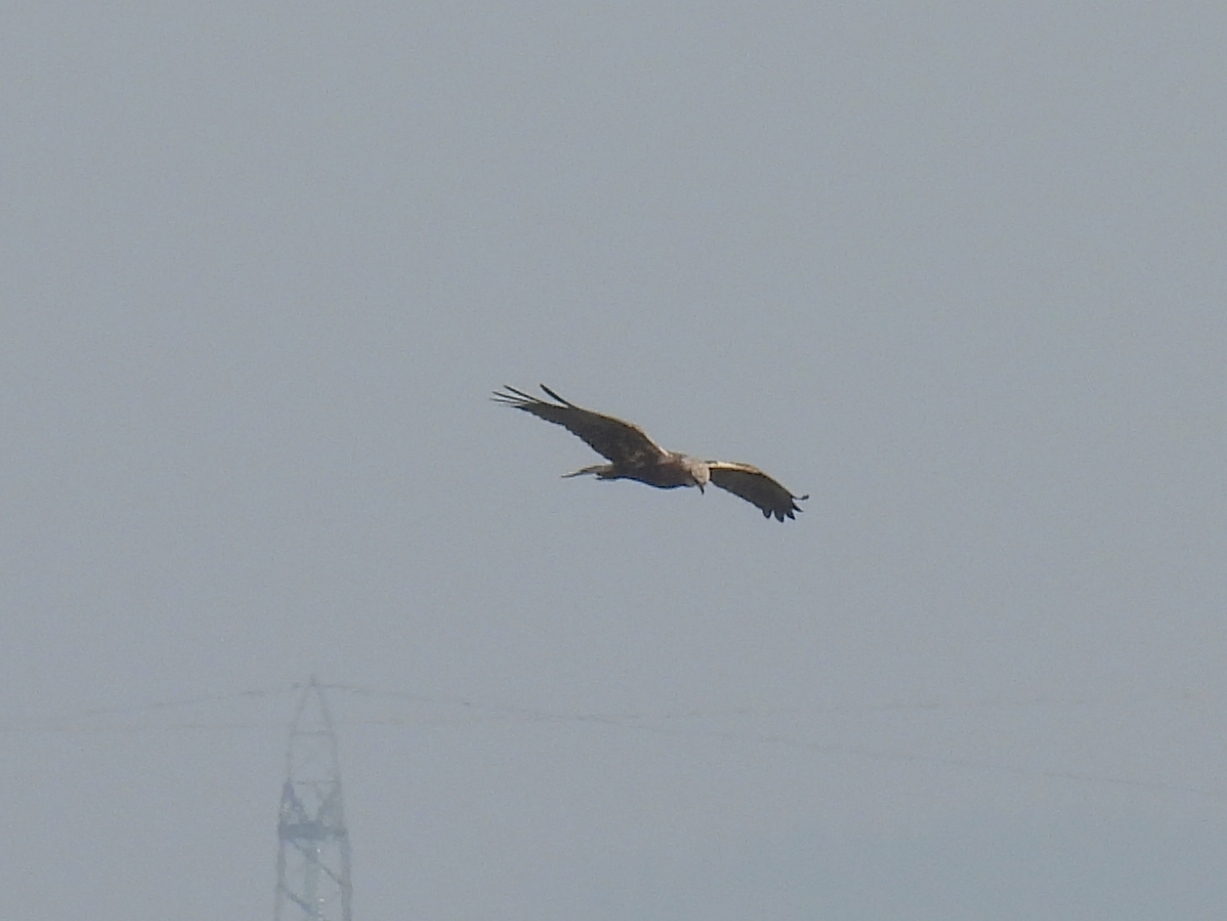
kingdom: Animalia
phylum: Chordata
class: Aves
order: Accipitriformes
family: Accipitridae
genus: Circus
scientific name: Circus aeruginosus
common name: Western marsh harrier
